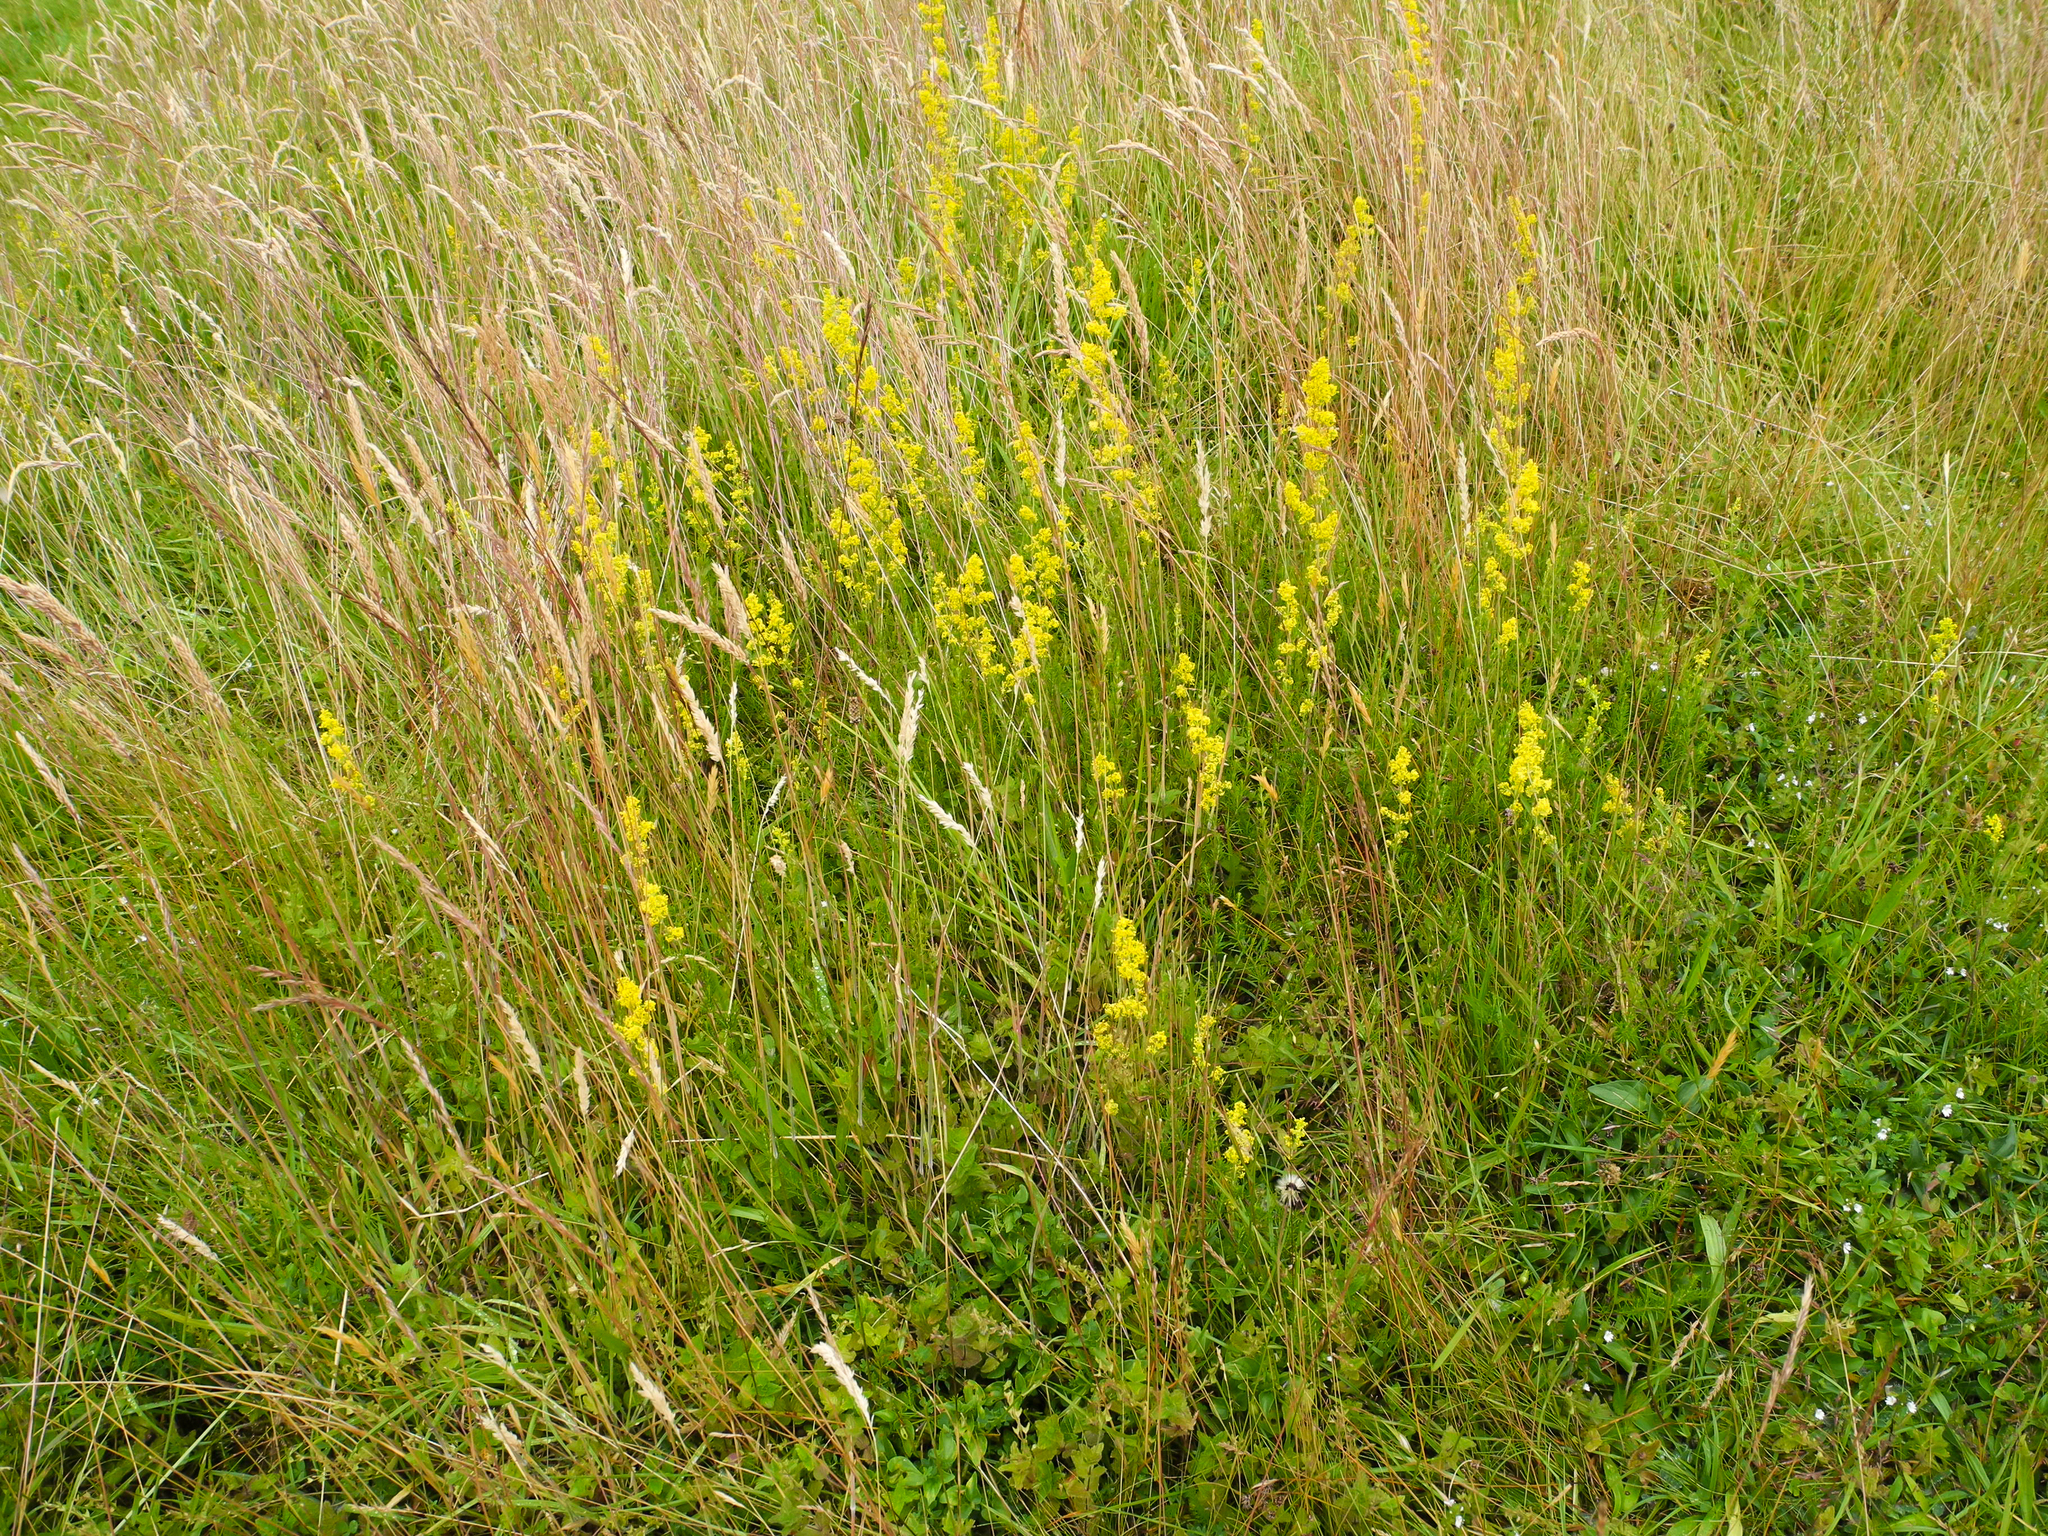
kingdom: Plantae
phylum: Tracheophyta
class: Magnoliopsida
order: Gentianales
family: Rubiaceae
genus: Galium
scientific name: Galium verum
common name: Lady's bedstraw
